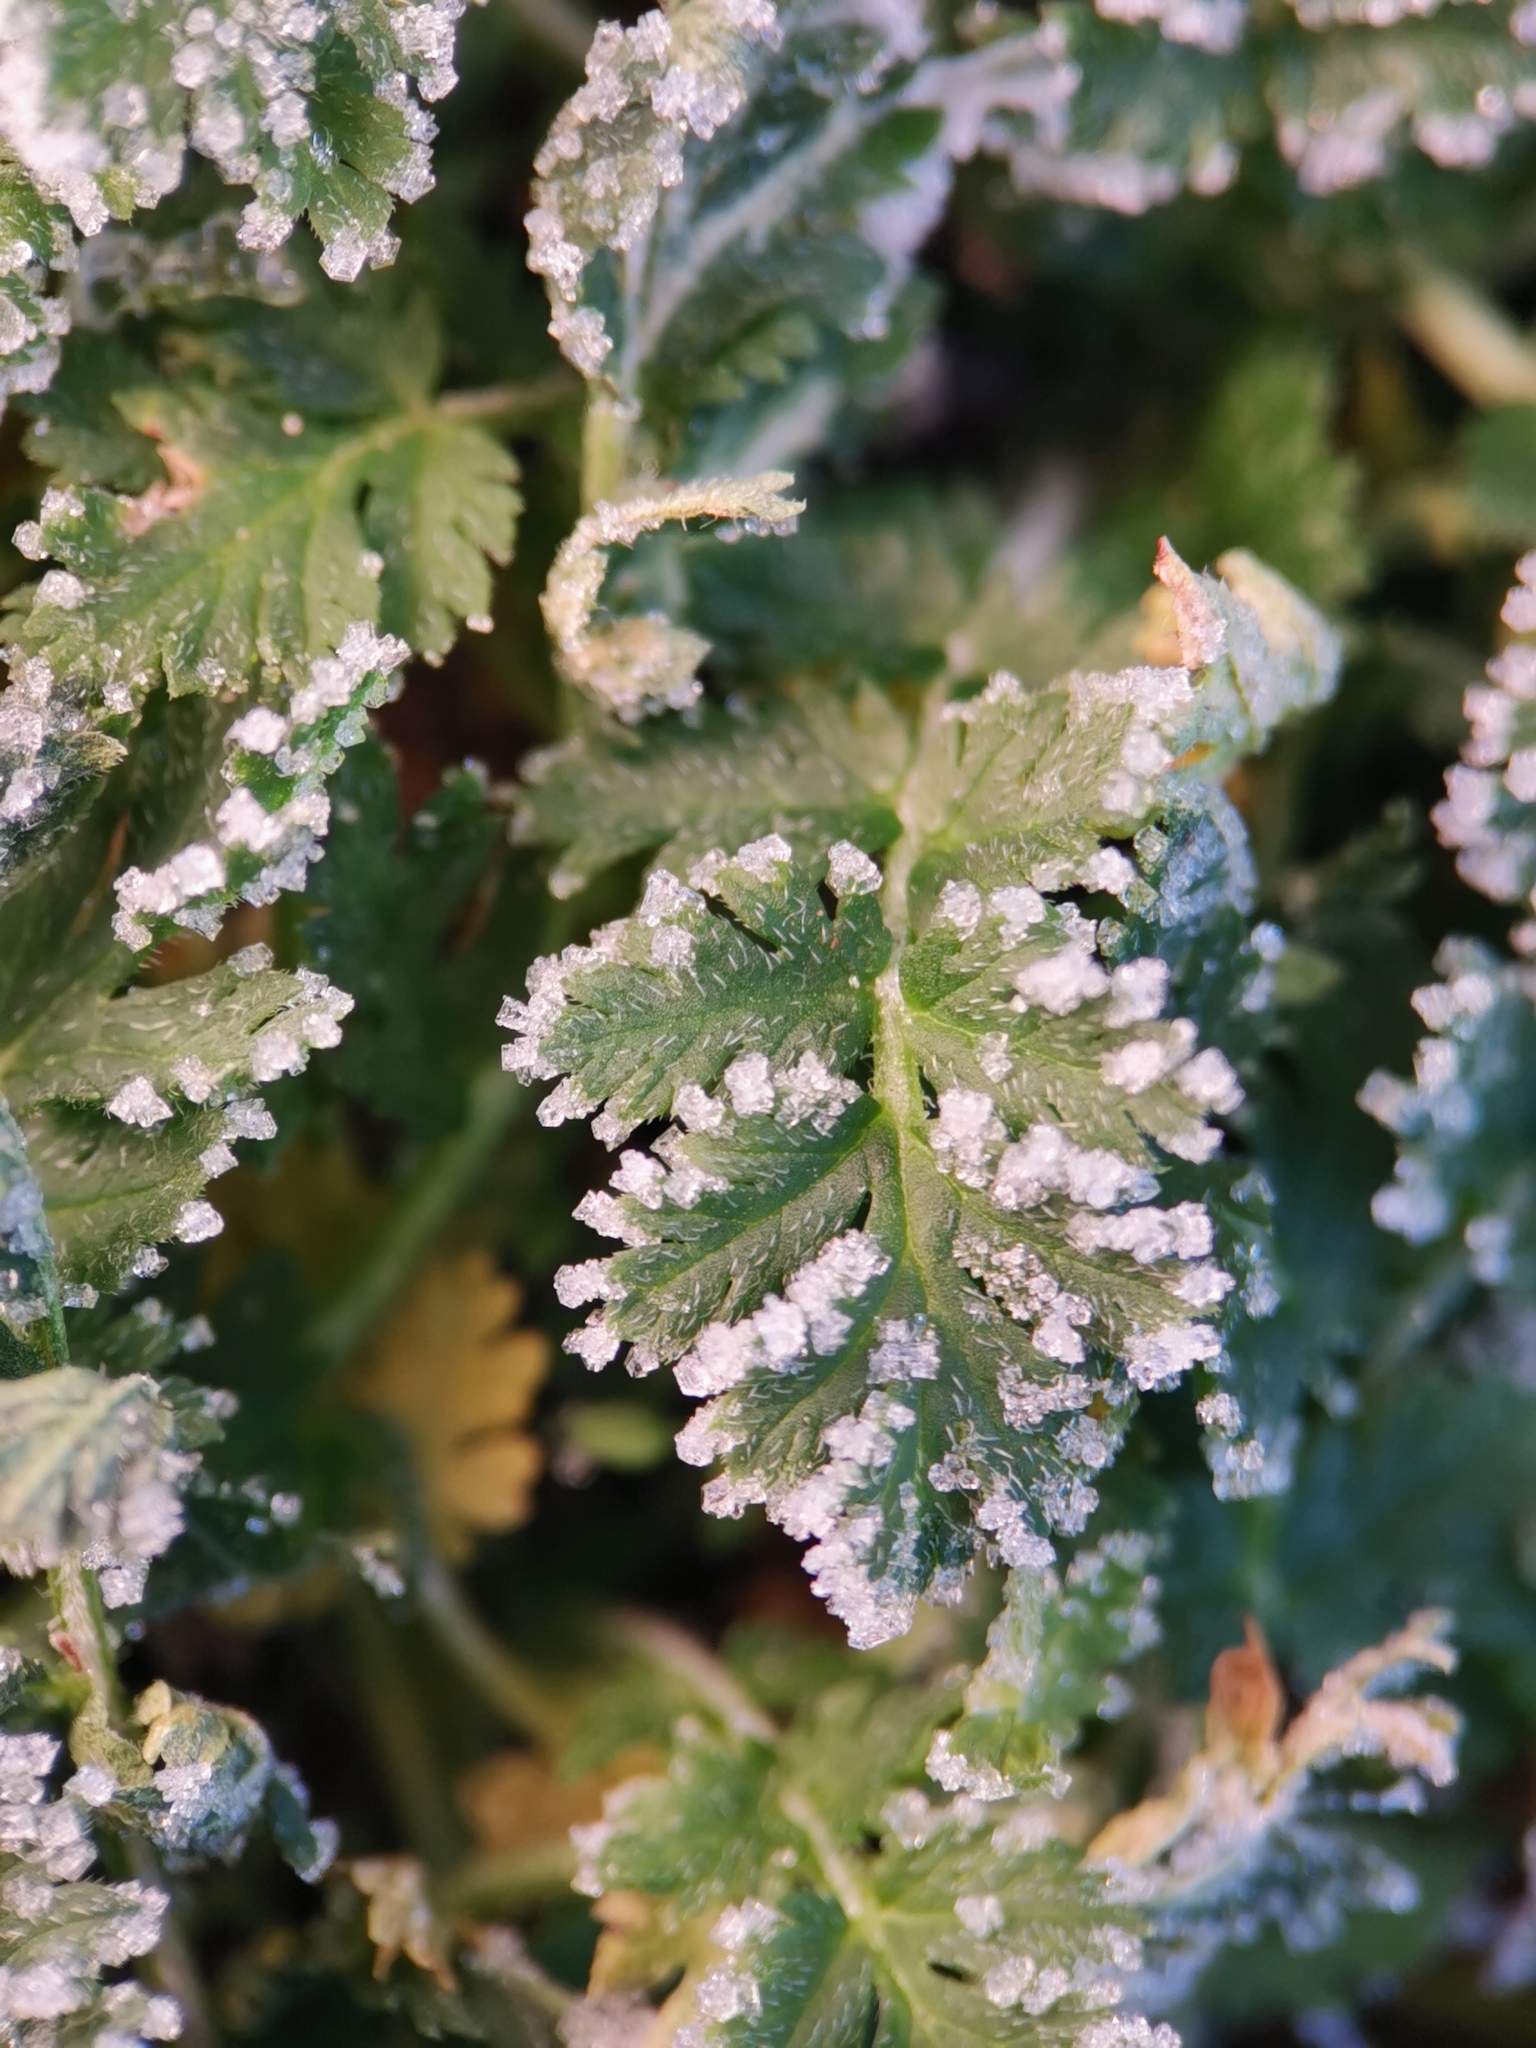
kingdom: Plantae
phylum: Tracheophyta
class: Magnoliopsida
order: Geraniales
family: Geraniaceae
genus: Erodium
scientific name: Erodium cicutarium
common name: Common stork's-bill
